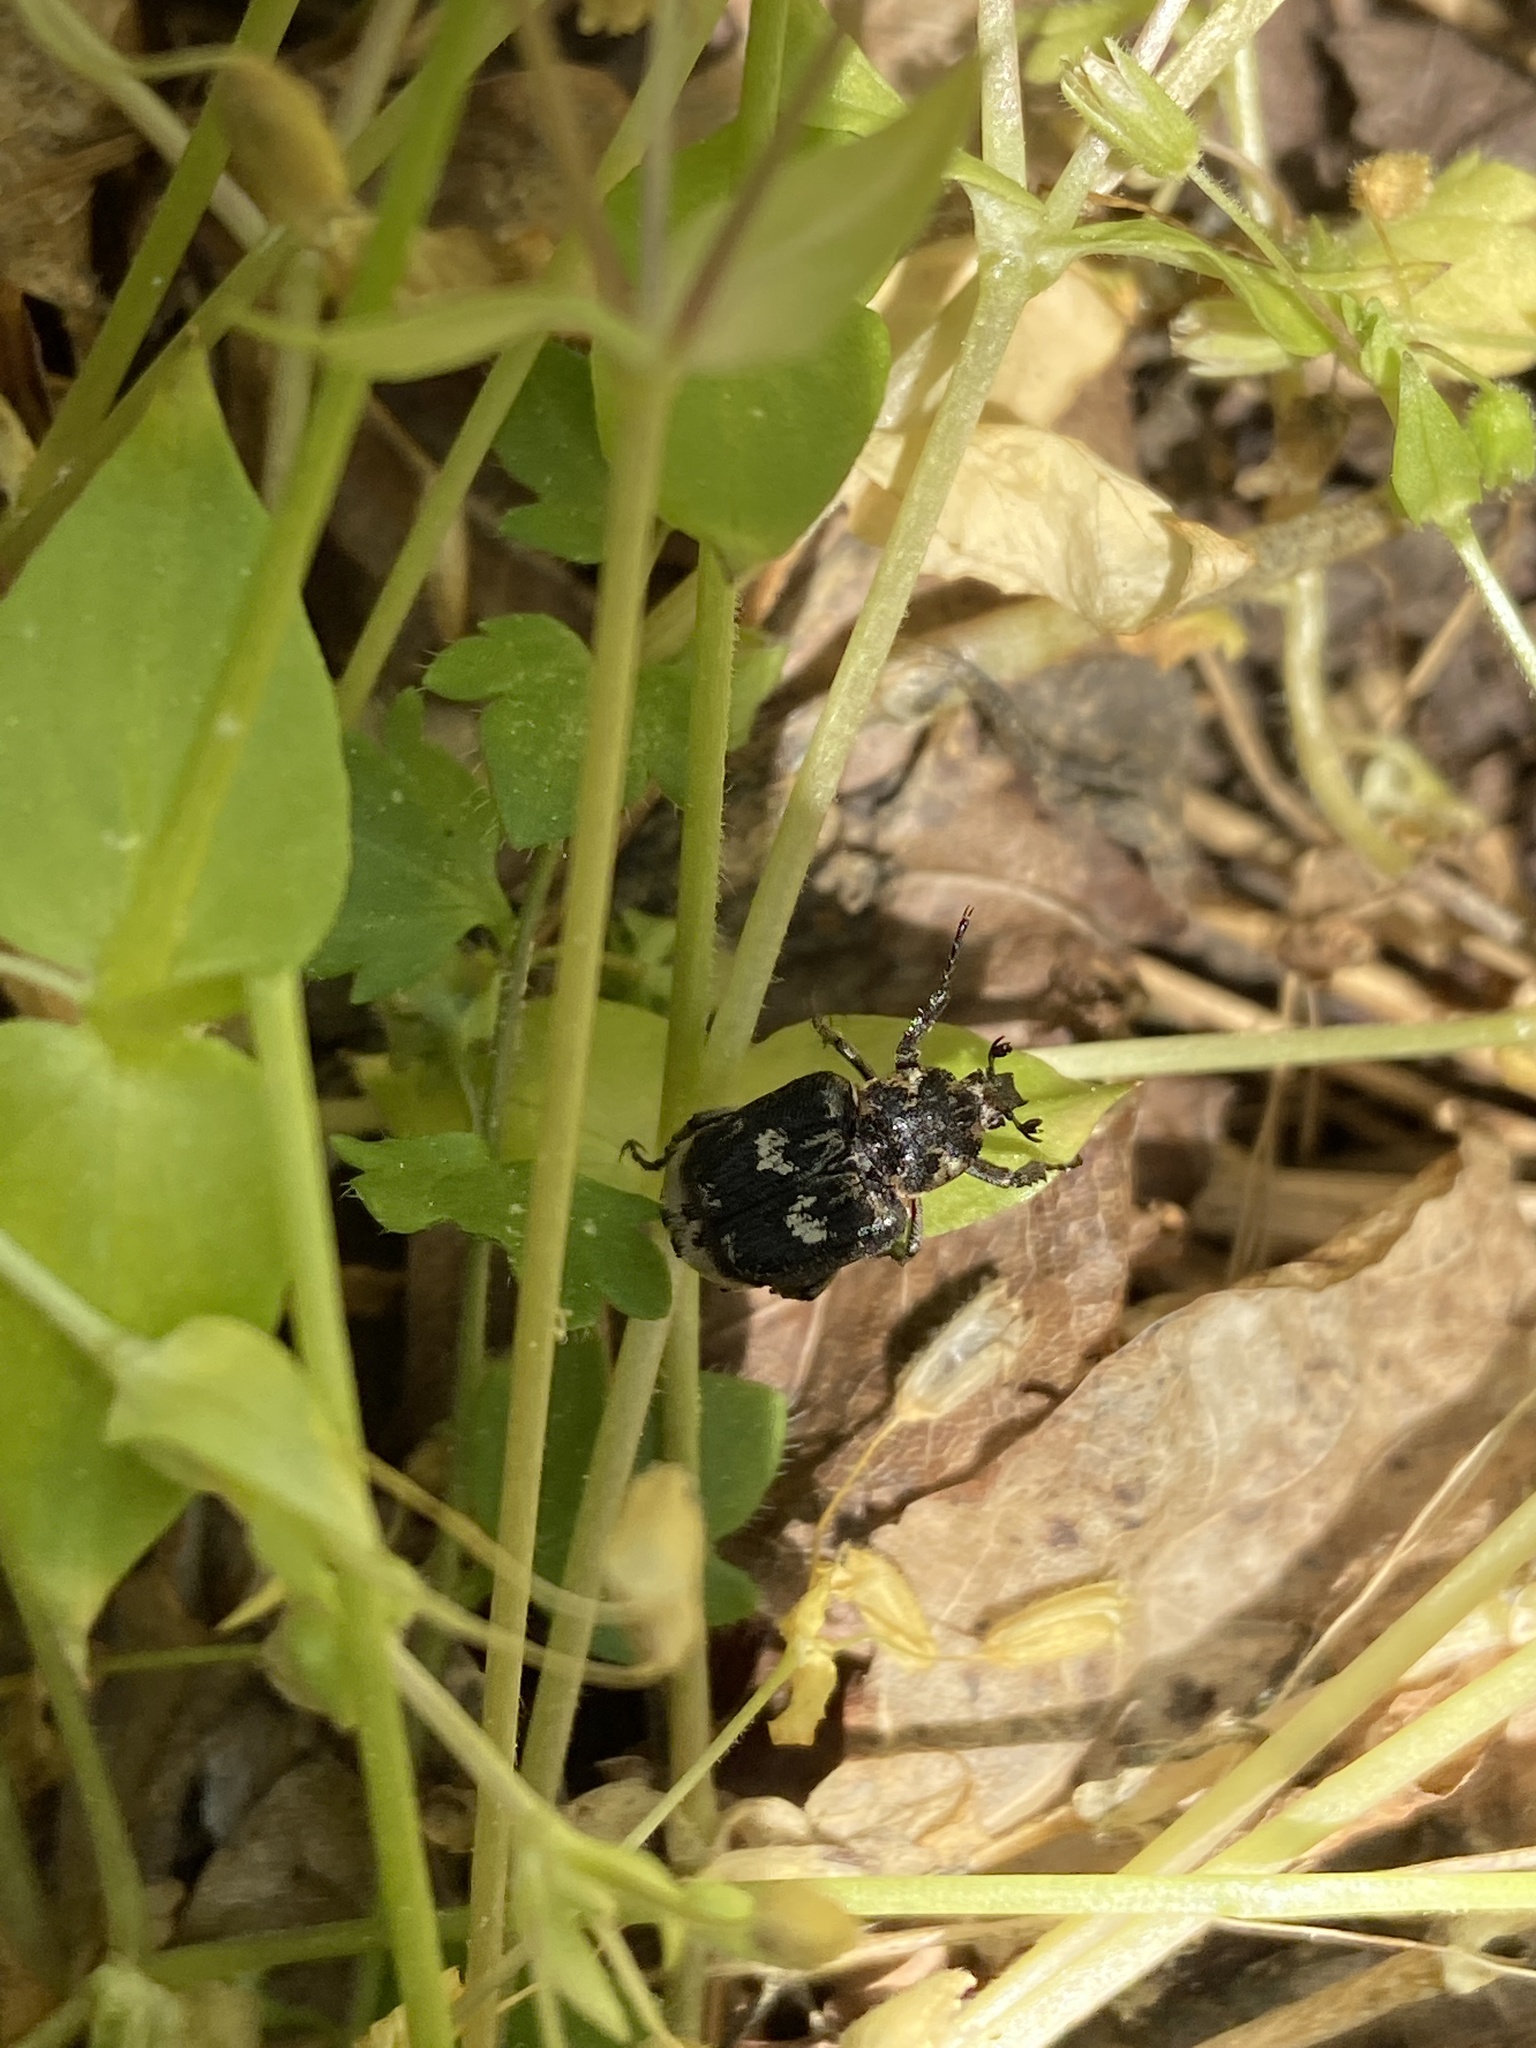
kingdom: Animalia
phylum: Arthropoda
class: Insecta
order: Coleoptera
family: Scarabaeidae
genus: Valgus
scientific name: Valgus hemipterus
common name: Bug flower chafer
